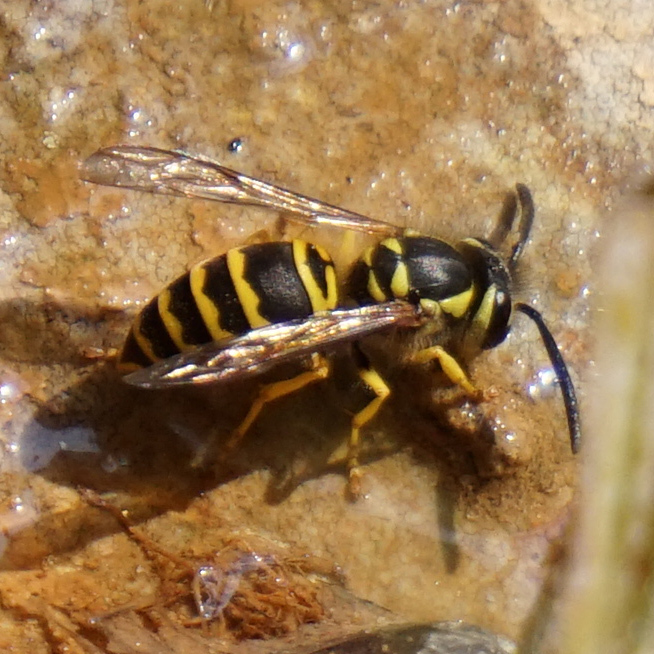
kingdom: Animalia
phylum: Arthropoda
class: Insecta
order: Hymenoptera
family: Vespidae
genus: Vespula
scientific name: Vespula maculifrons
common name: Eastern yellowjacket
